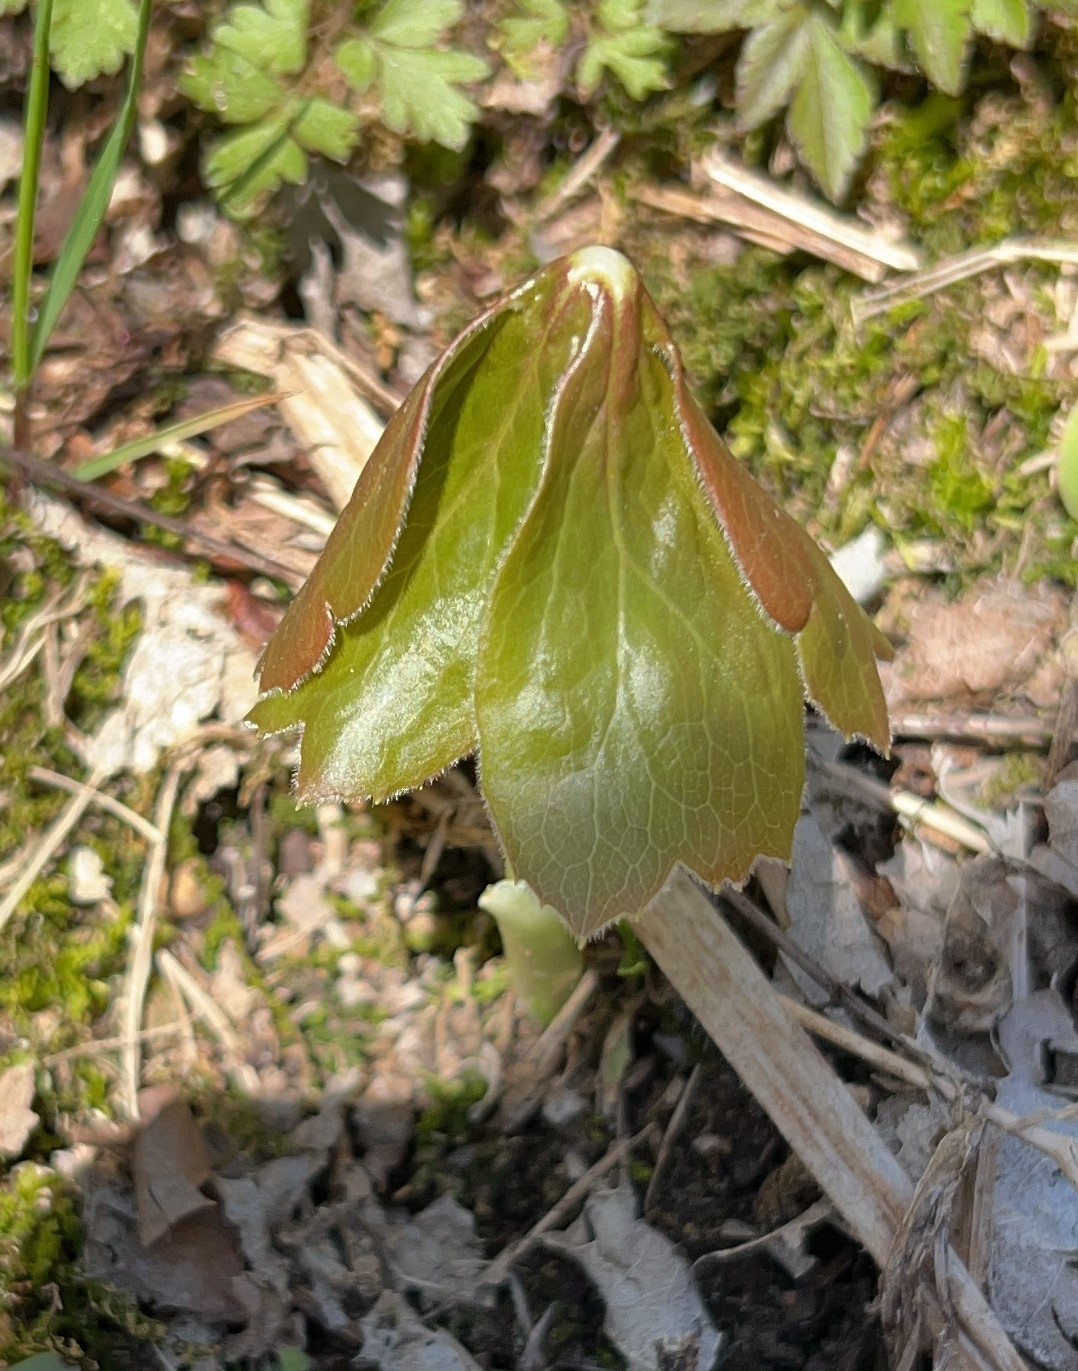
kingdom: Plantae
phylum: Tracheophyta
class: Magnoliopsida
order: Ranunculales
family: Berberidaceae
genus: Podophyllum
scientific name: Podophyllum peltatum
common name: Wild mandrake
